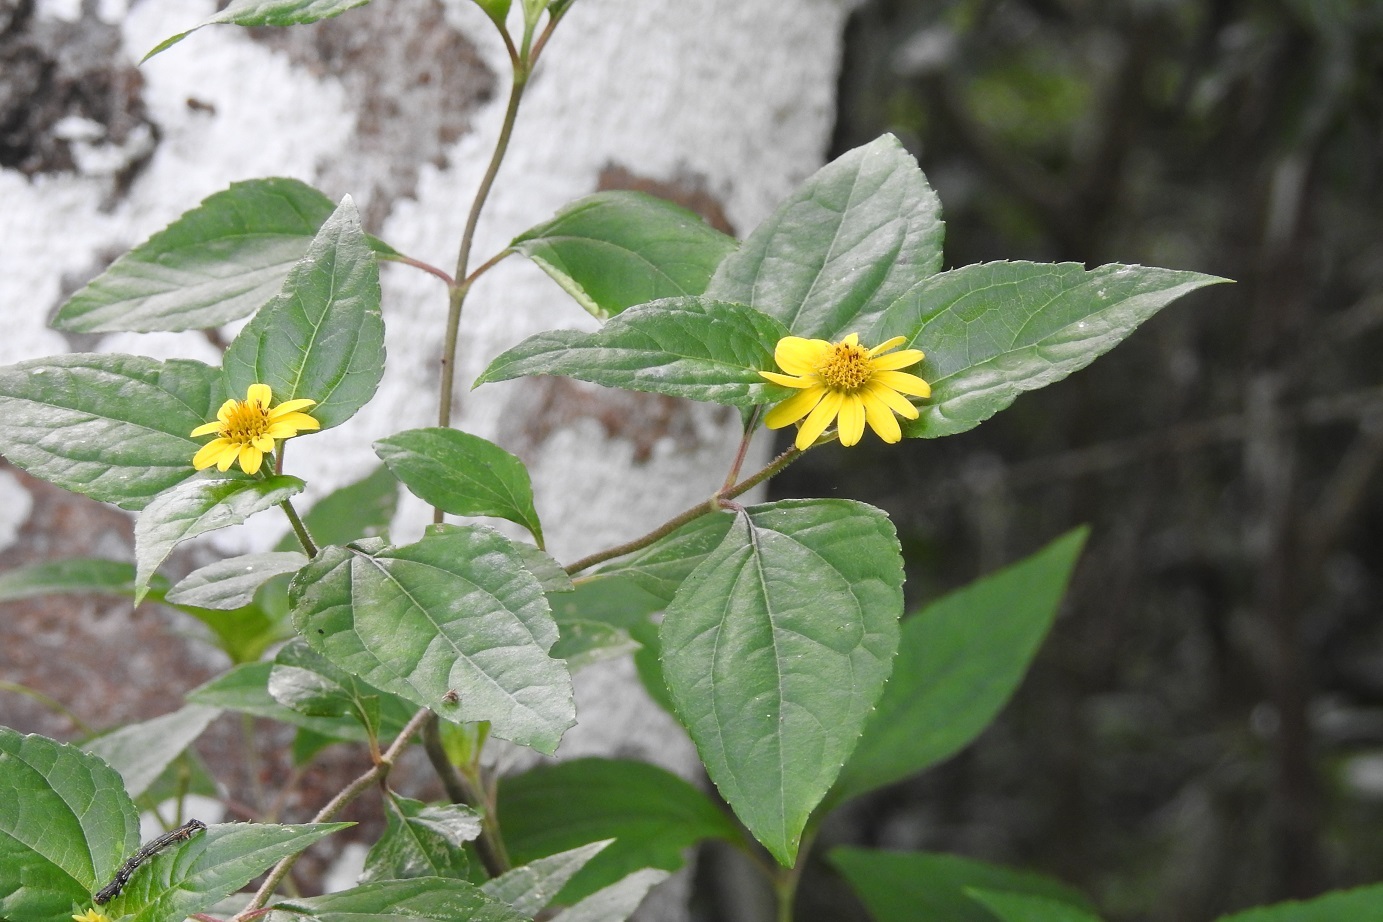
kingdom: Plantae
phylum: Tracheophyta
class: Magnoliopsida
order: Asterales
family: Asteraceae
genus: Philactis
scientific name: Philactis zinnioides
